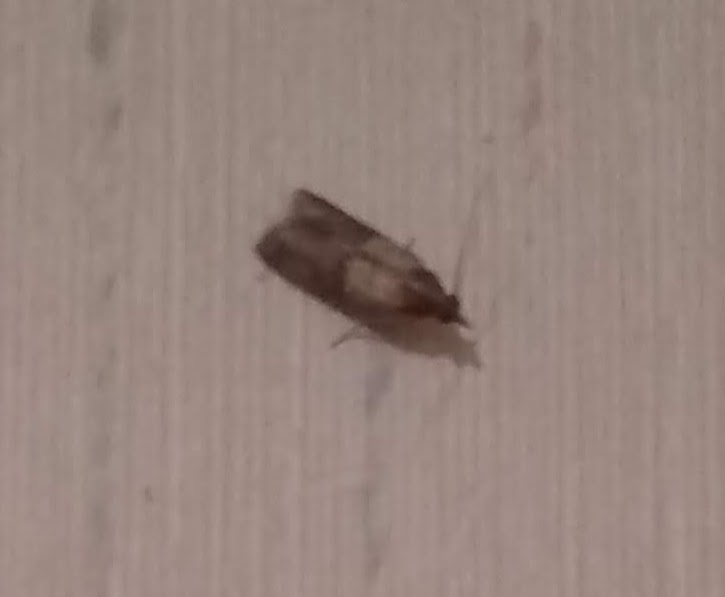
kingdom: Animalia
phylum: Arthropoda
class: Insecta
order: Lepidoptera
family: Pyralidae
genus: Plodia
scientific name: Plodia interpunctella
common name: Indian meal moth
